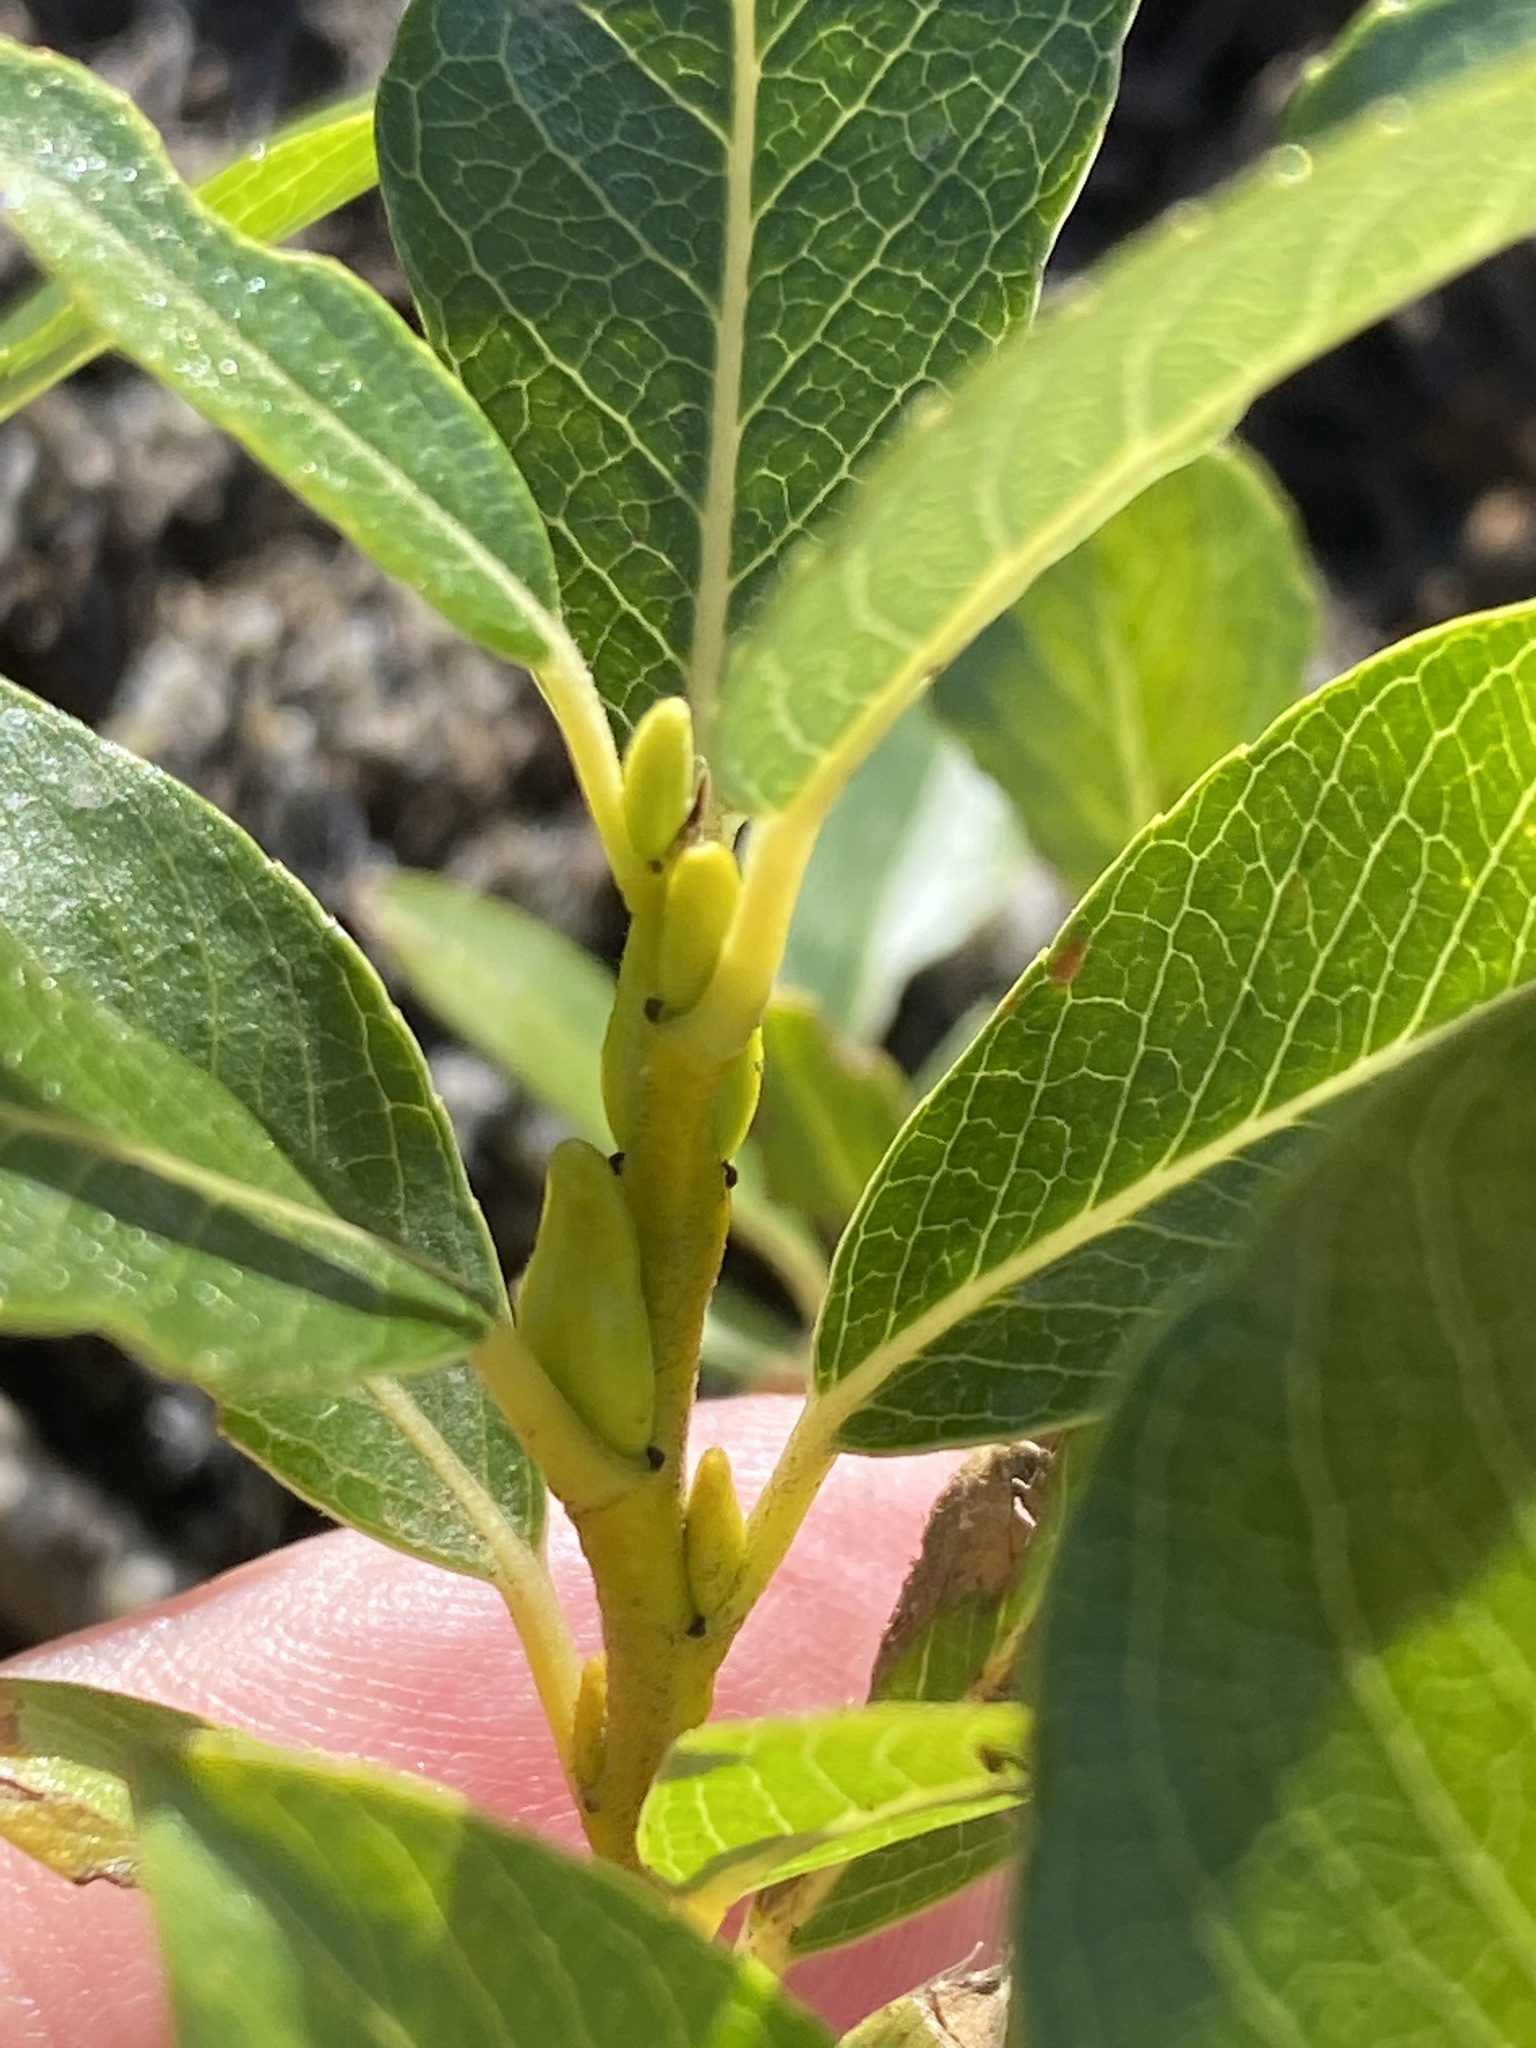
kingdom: Plantae
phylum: Tracheophyta
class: Magnoliopsida
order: Malpighiales
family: Salicaceae
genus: Salix
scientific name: Salix phylicifolia
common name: Tea-leaved willow
